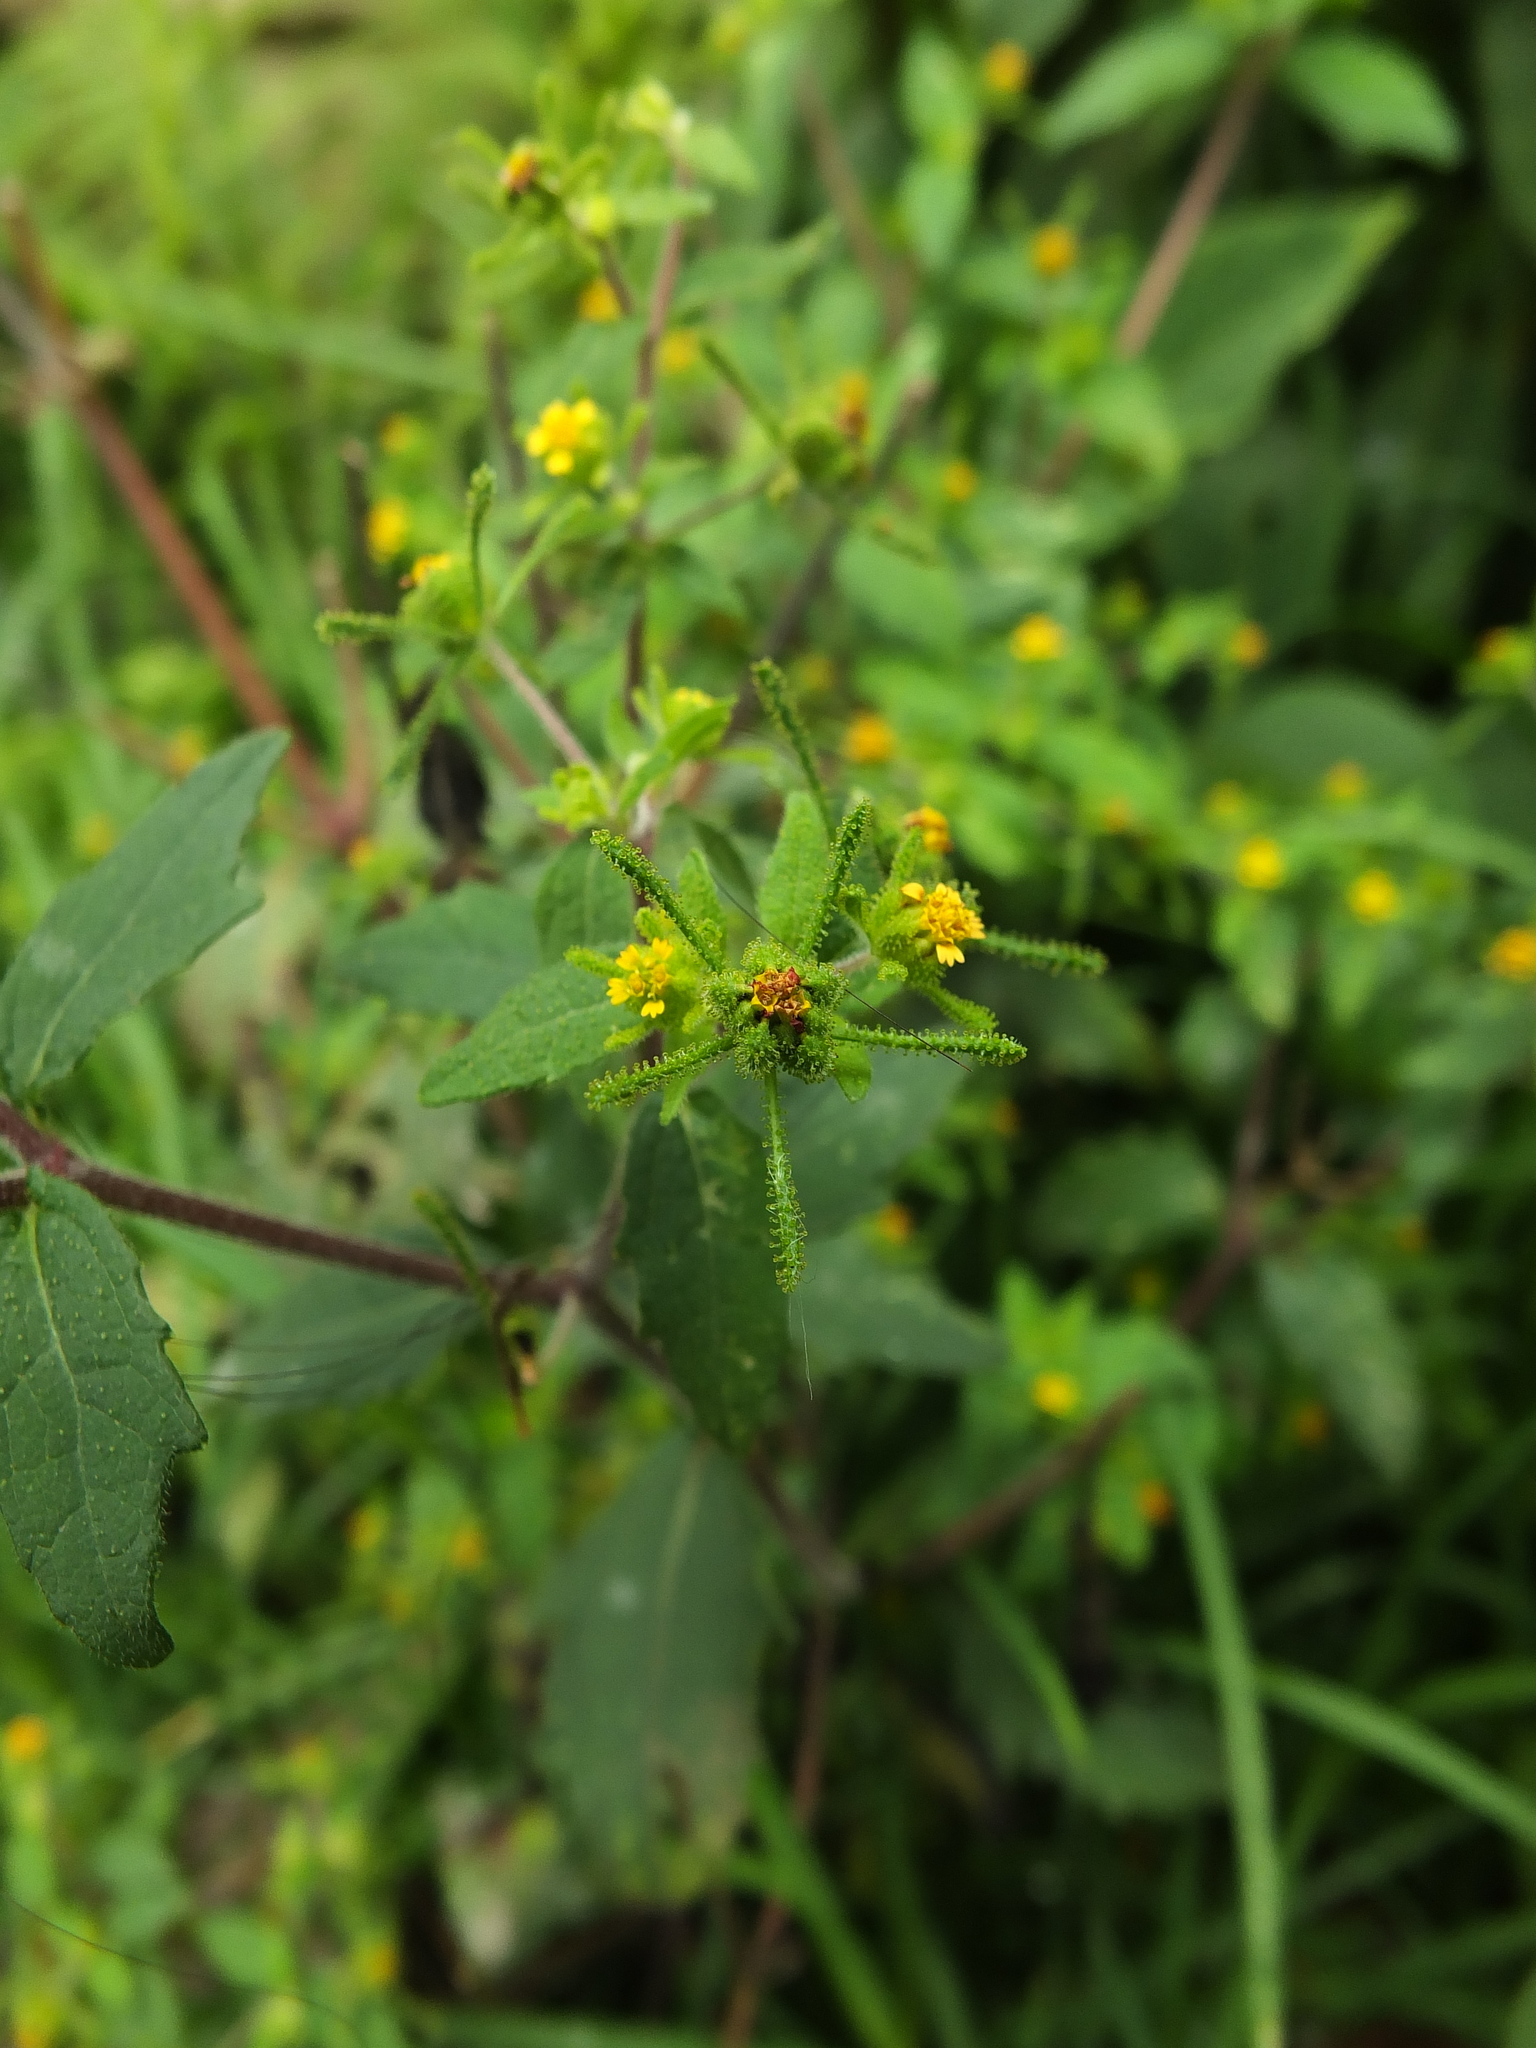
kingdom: Plantae
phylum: Tracheophyta
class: Magnoliopsida
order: Asterales
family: Asteraceae
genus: Sigesbeckia
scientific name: Sigesbeckia orientalis
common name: Eastern st paul's-wort
